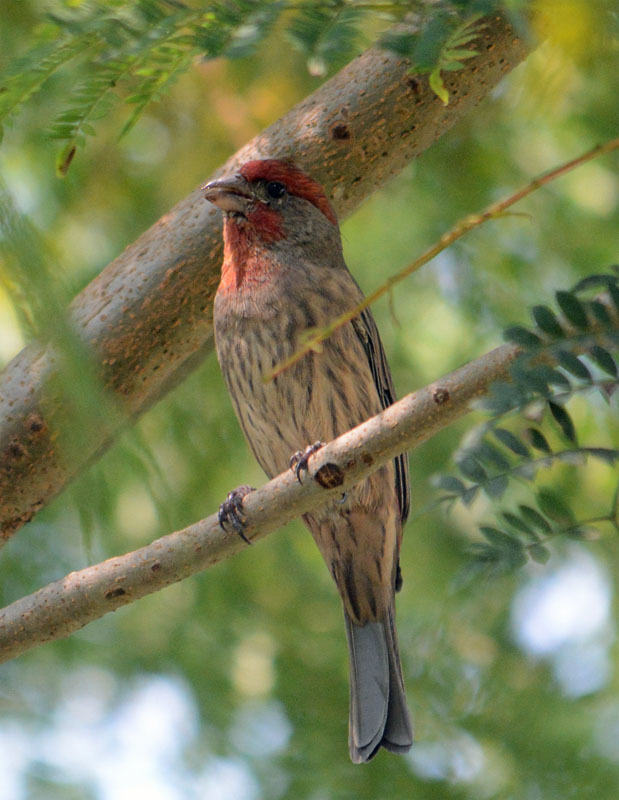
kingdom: Animalia
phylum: Chordata
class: Aves
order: Passeriformes
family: Fringillidae
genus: Haemorhous
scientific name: Haemorhous mexicanus
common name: House finch
